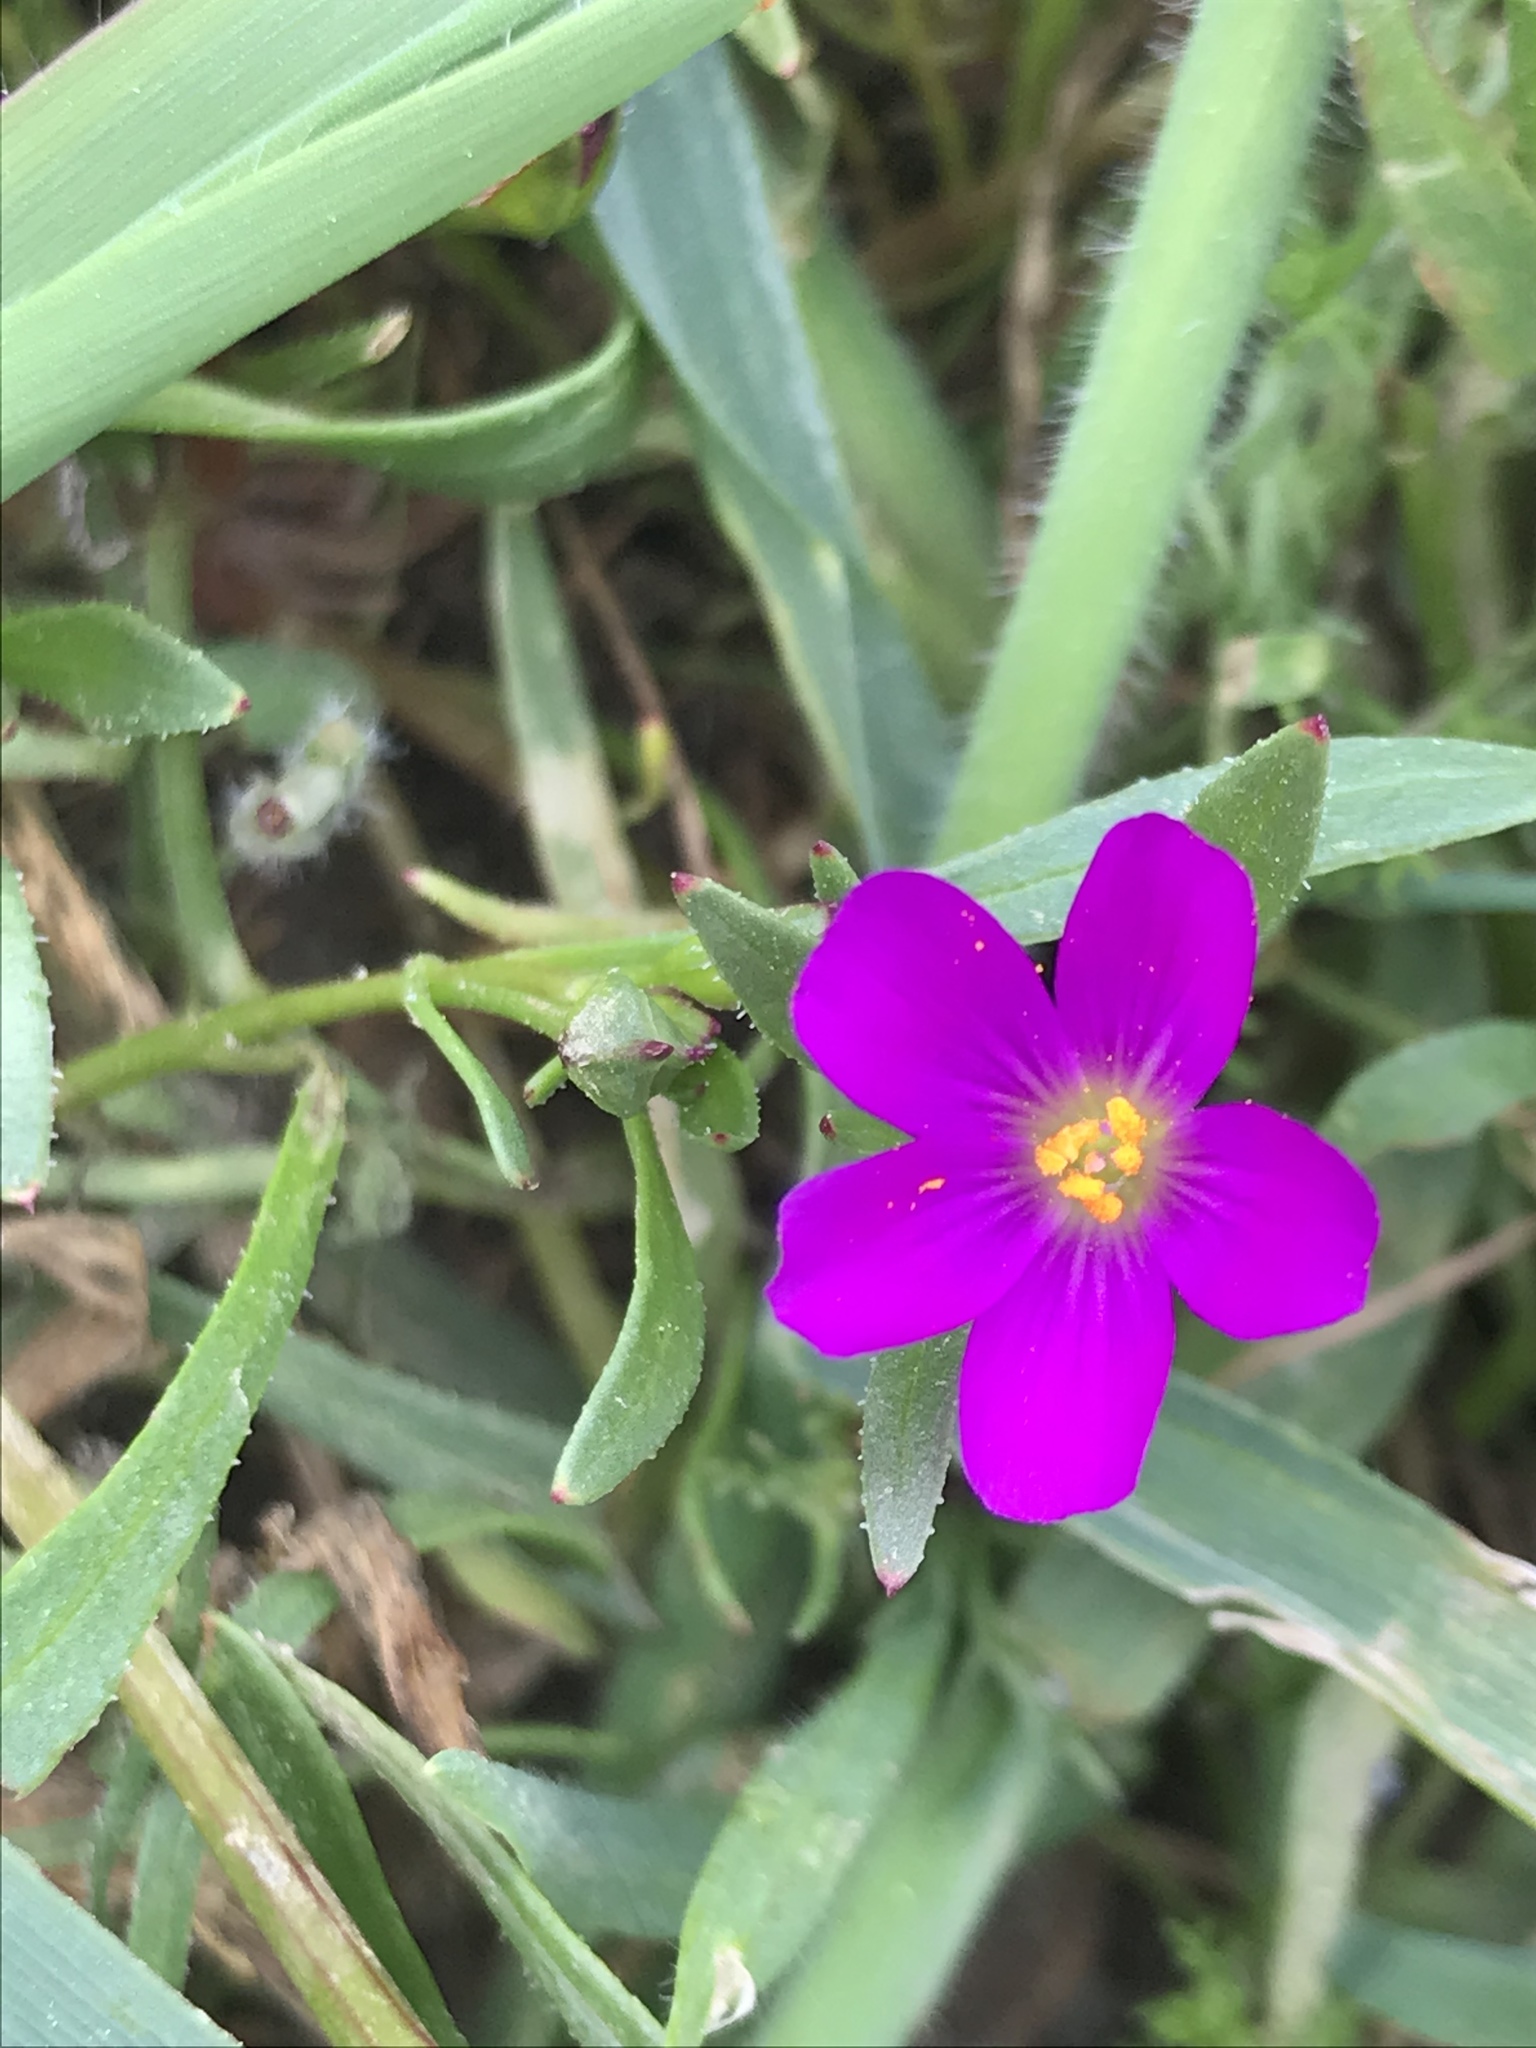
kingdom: Plantae
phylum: Tracheophyta
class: Magnoliopsida
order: Caryophyllales
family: Montiaceae
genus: Calandrinia
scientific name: Calandrinia menziesii
